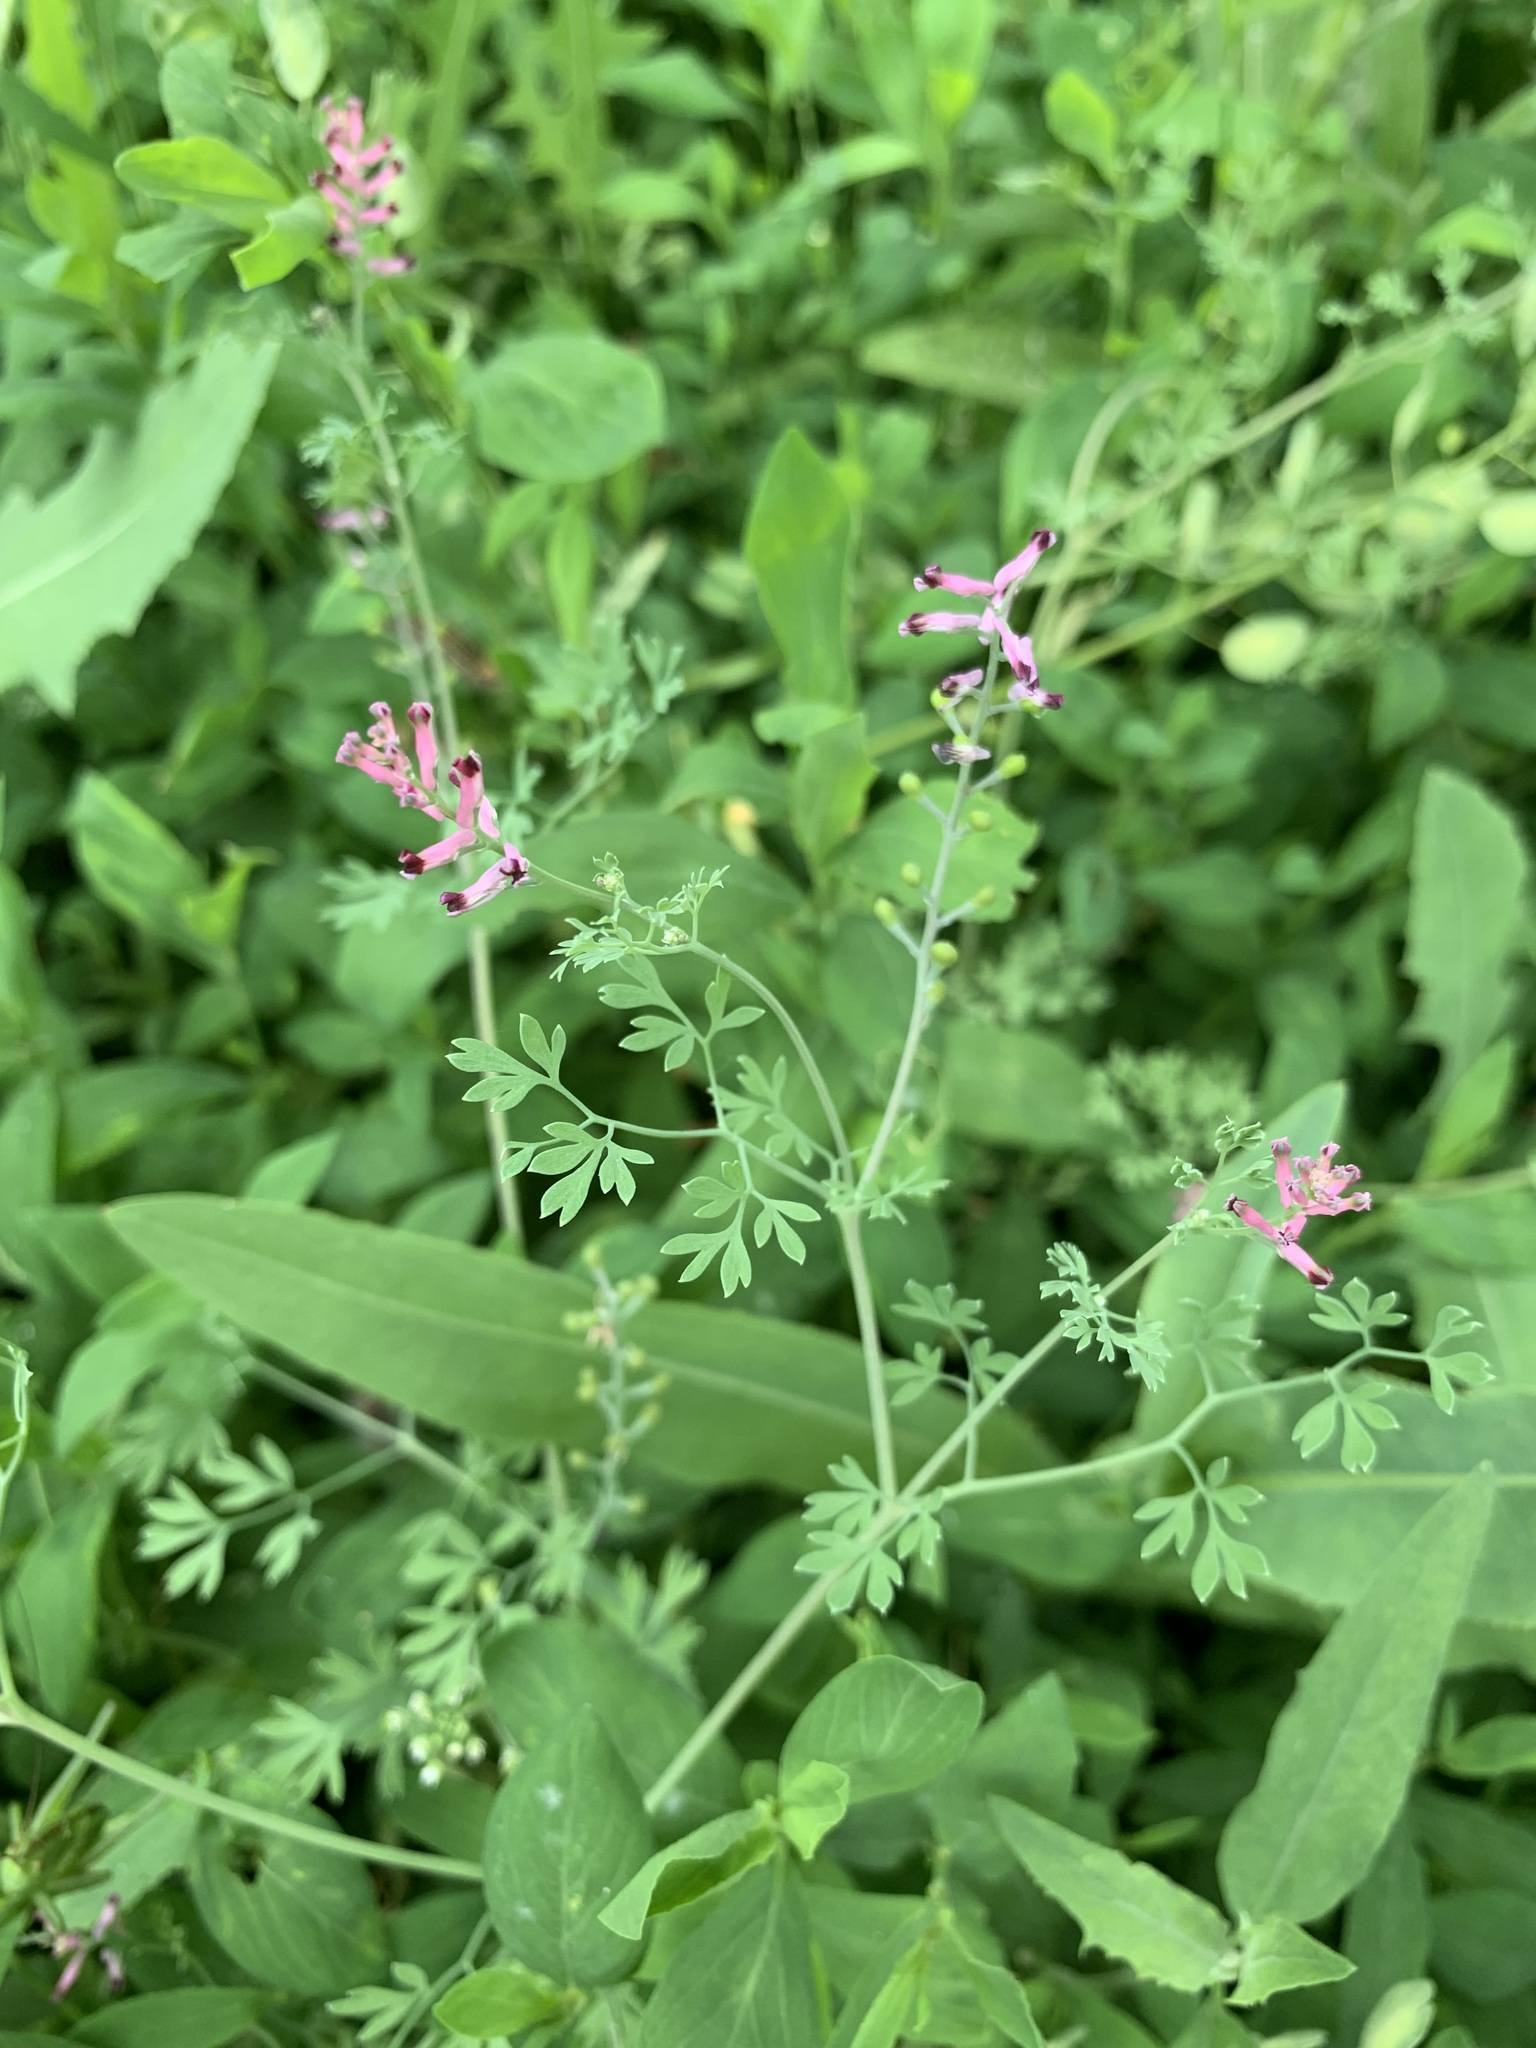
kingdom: Plantae
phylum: Tracheophyta
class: Magnoliopsida
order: Ranunculales
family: Papaveraceae
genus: Fumaria
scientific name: Fumaria schleicheri
